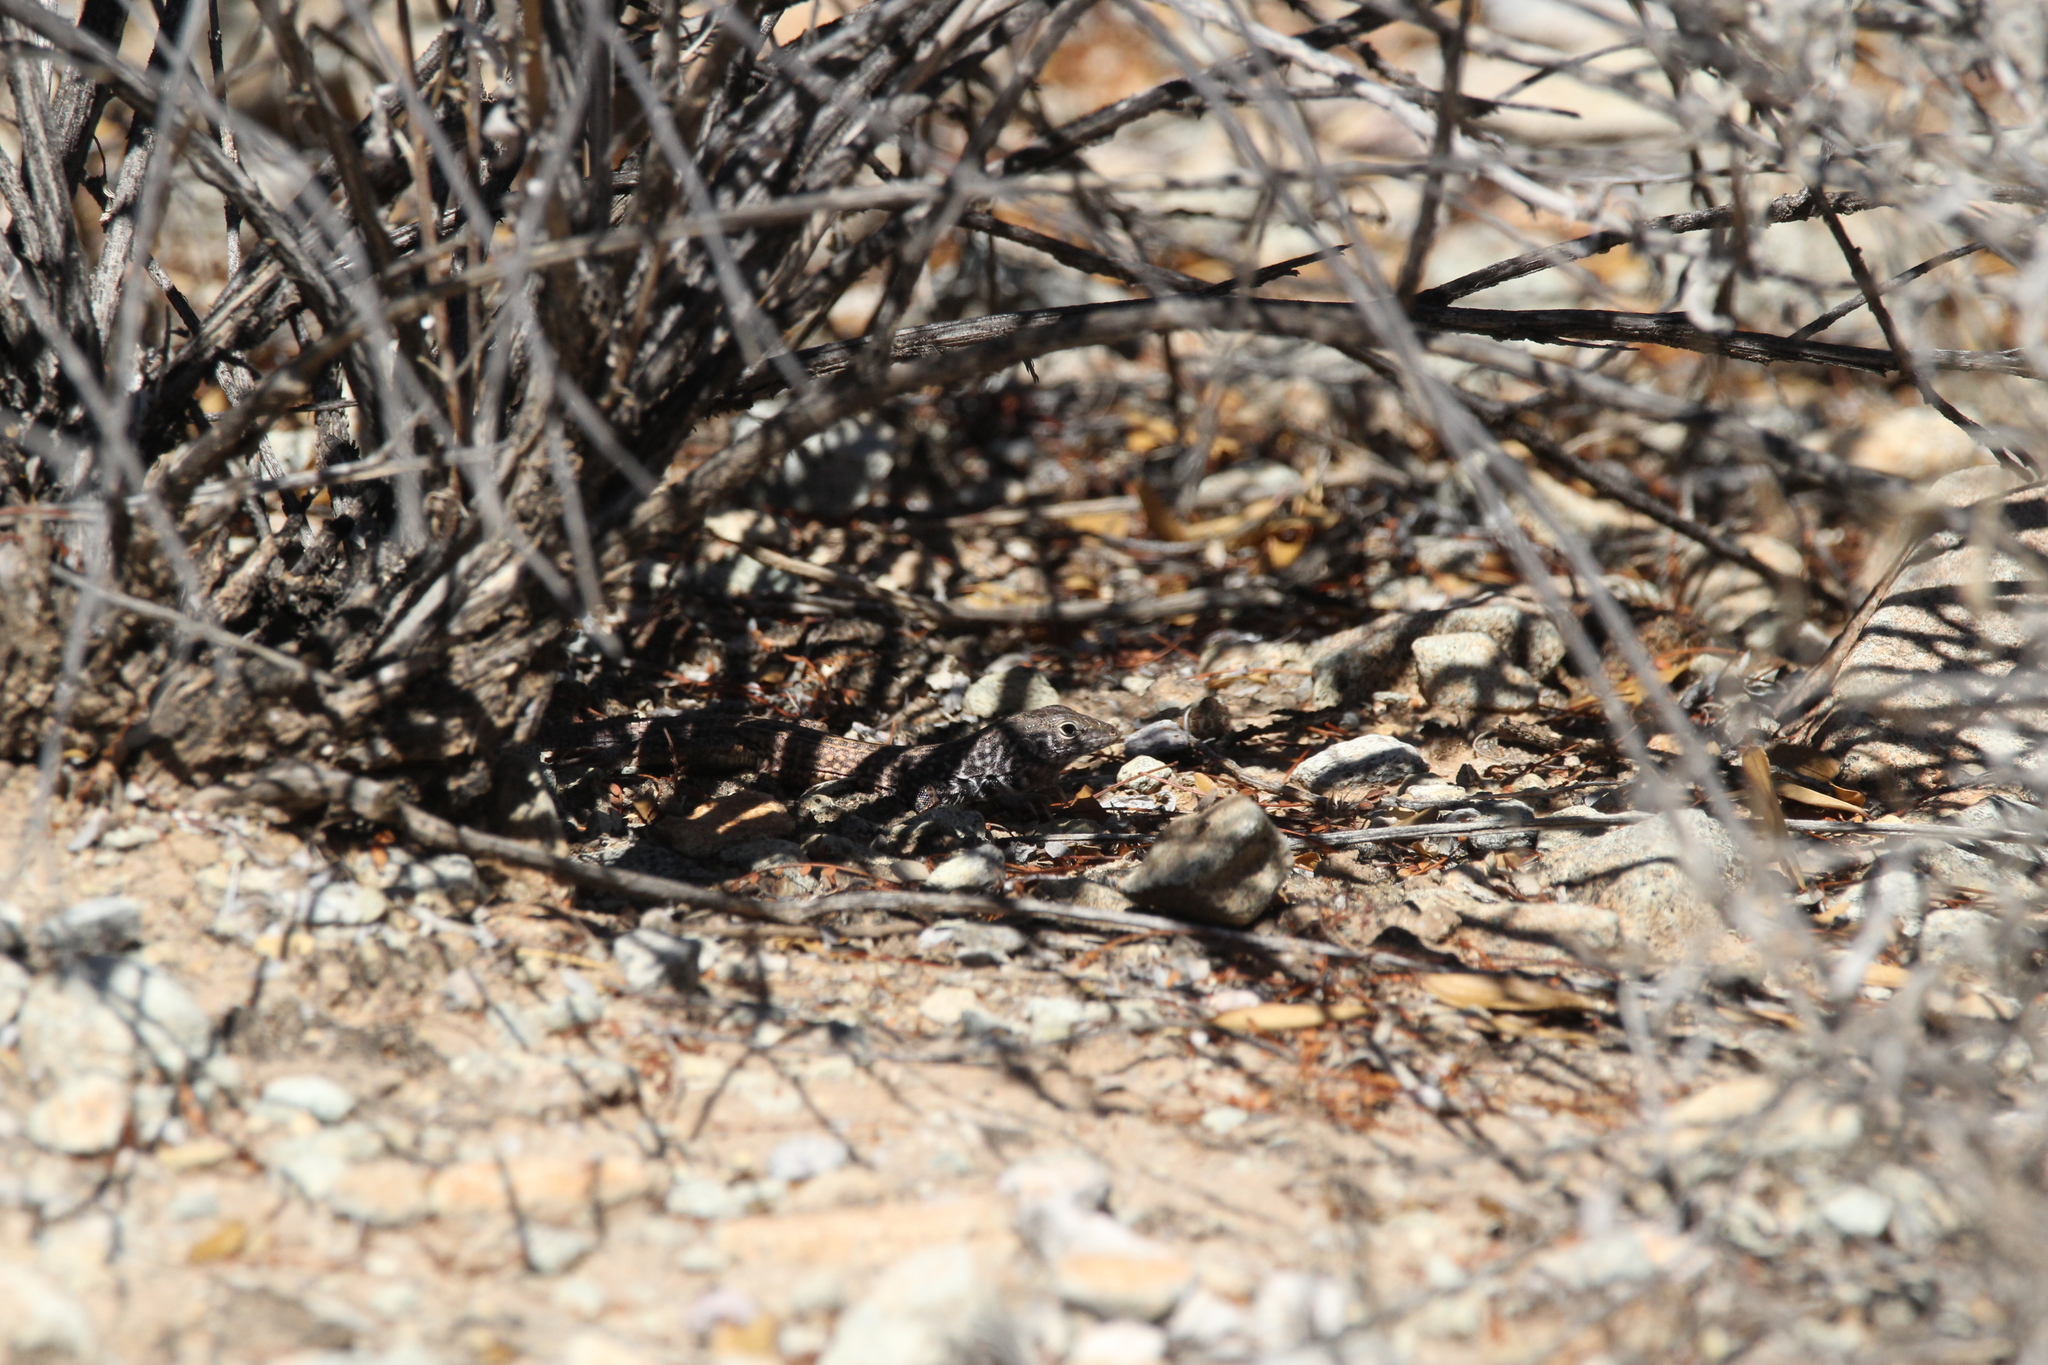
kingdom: Animalia
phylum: Chordata
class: Squamata
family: Teiidae
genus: Aspidoscelis
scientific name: Aspidoscelis tigris
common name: Tiger whiptail
